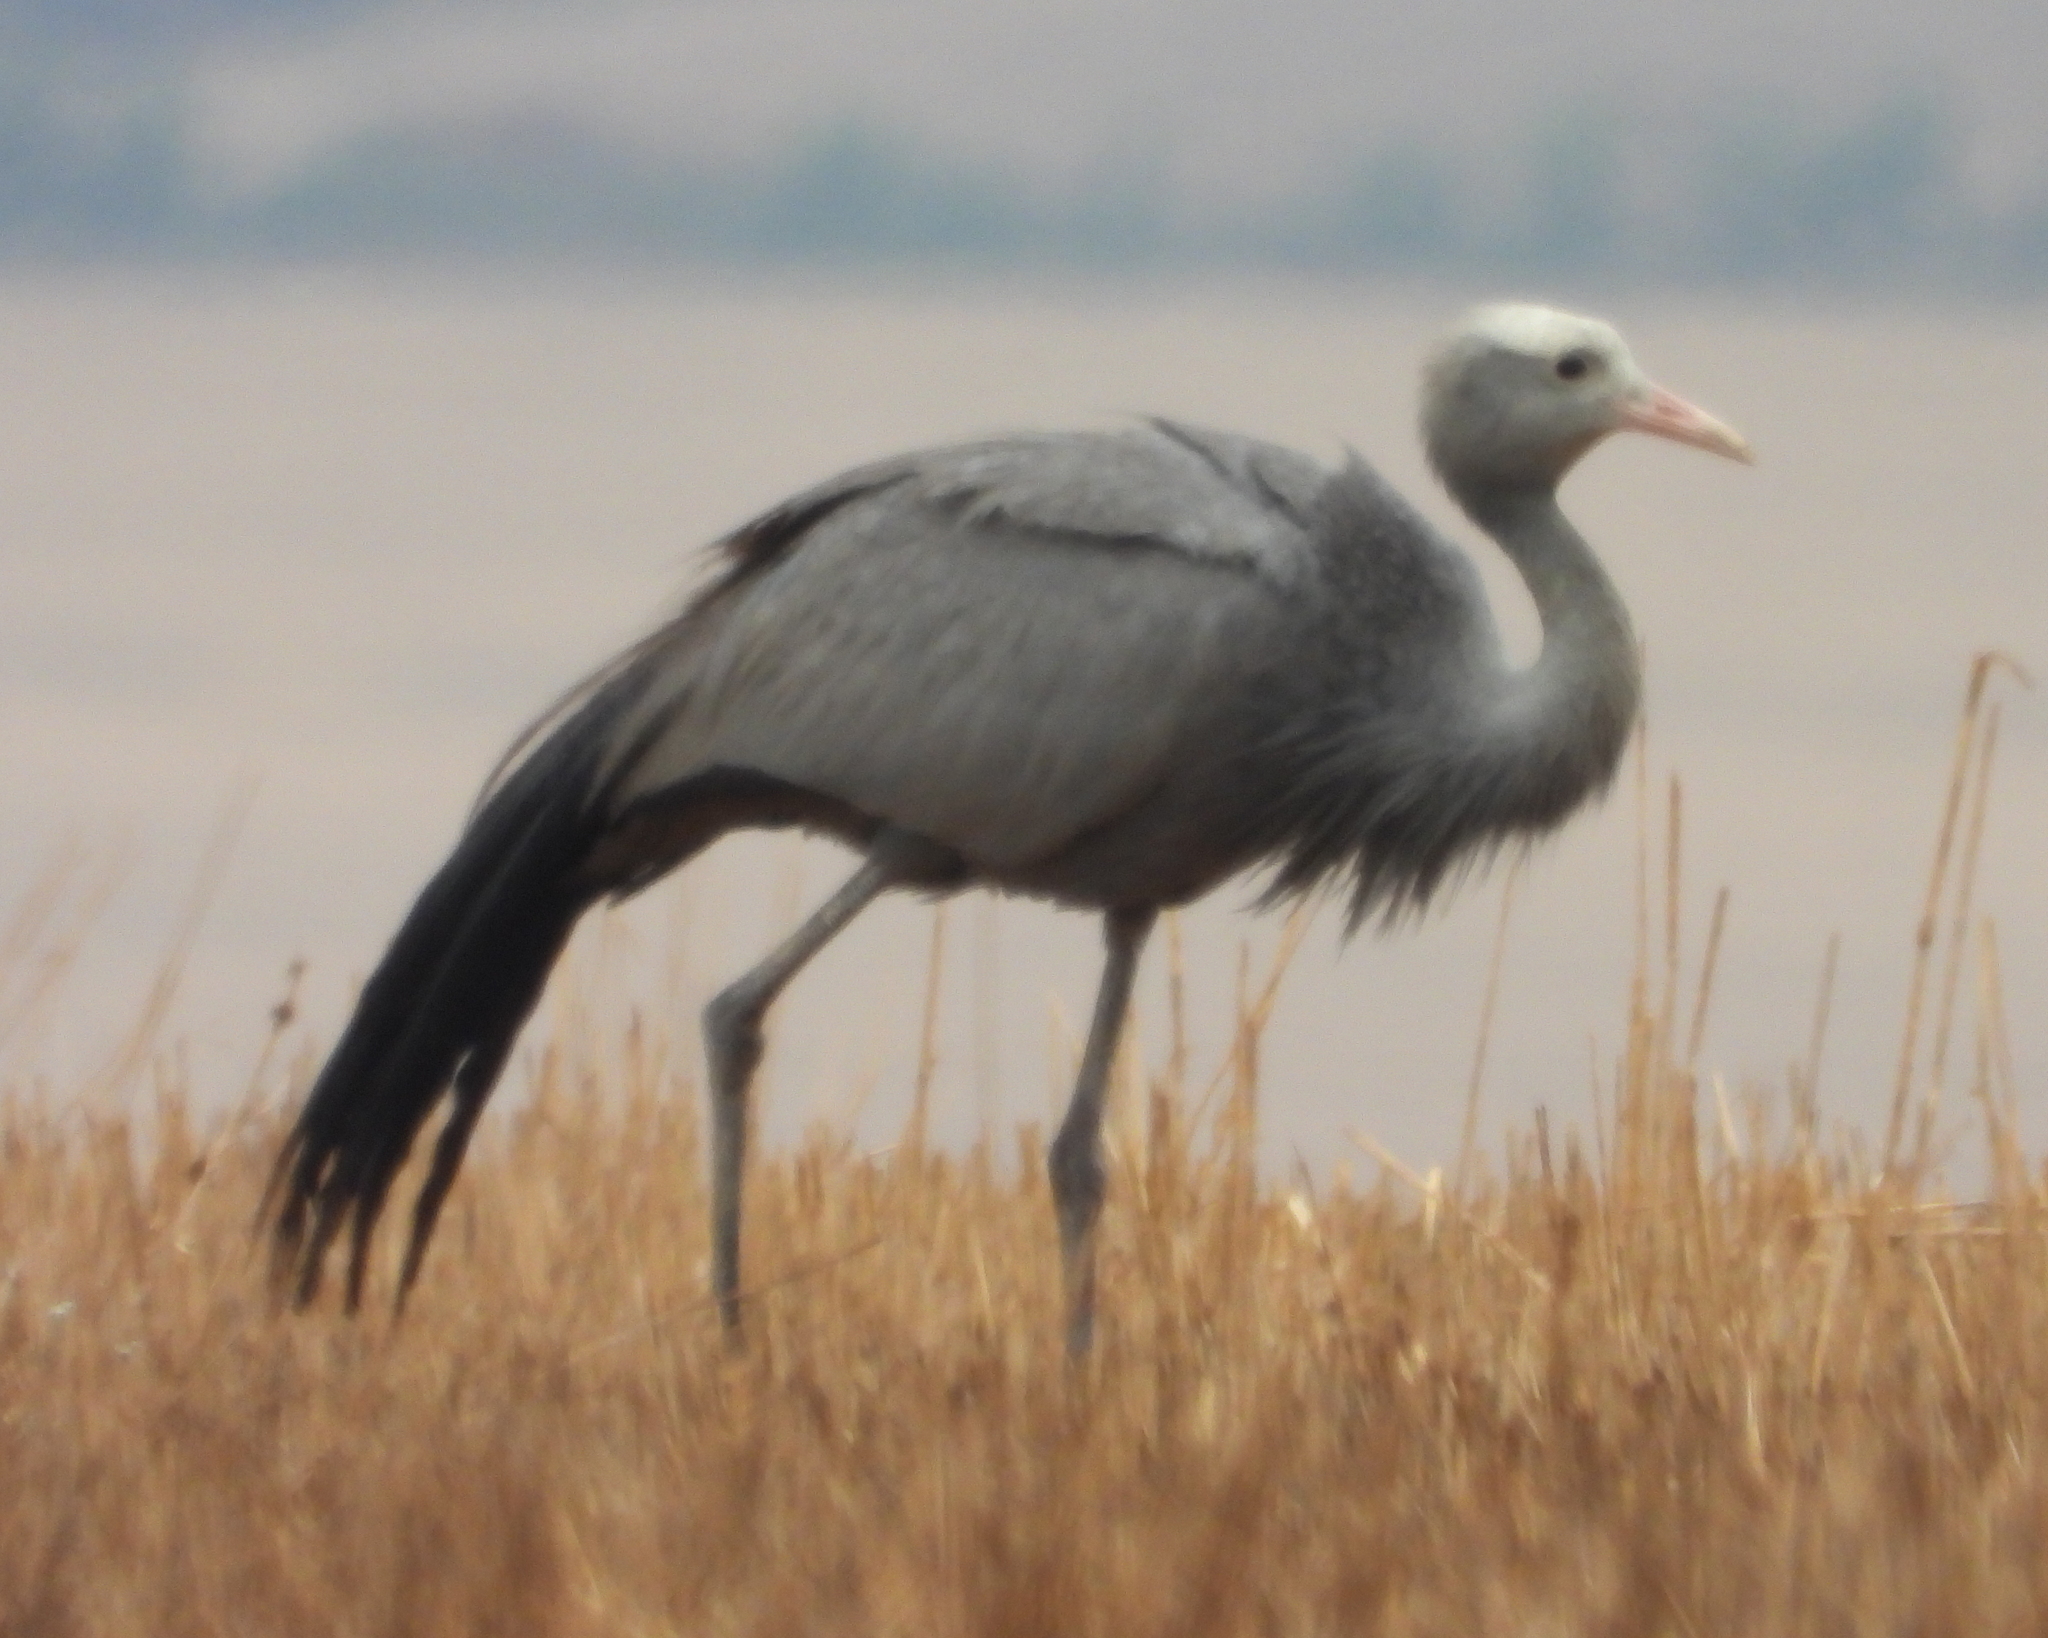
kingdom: Animalia
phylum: Chordata
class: Aves
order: Gruiformes
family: Gruidae
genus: Anthropoides
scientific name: Anthropoides paradiseus
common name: Blue crane
